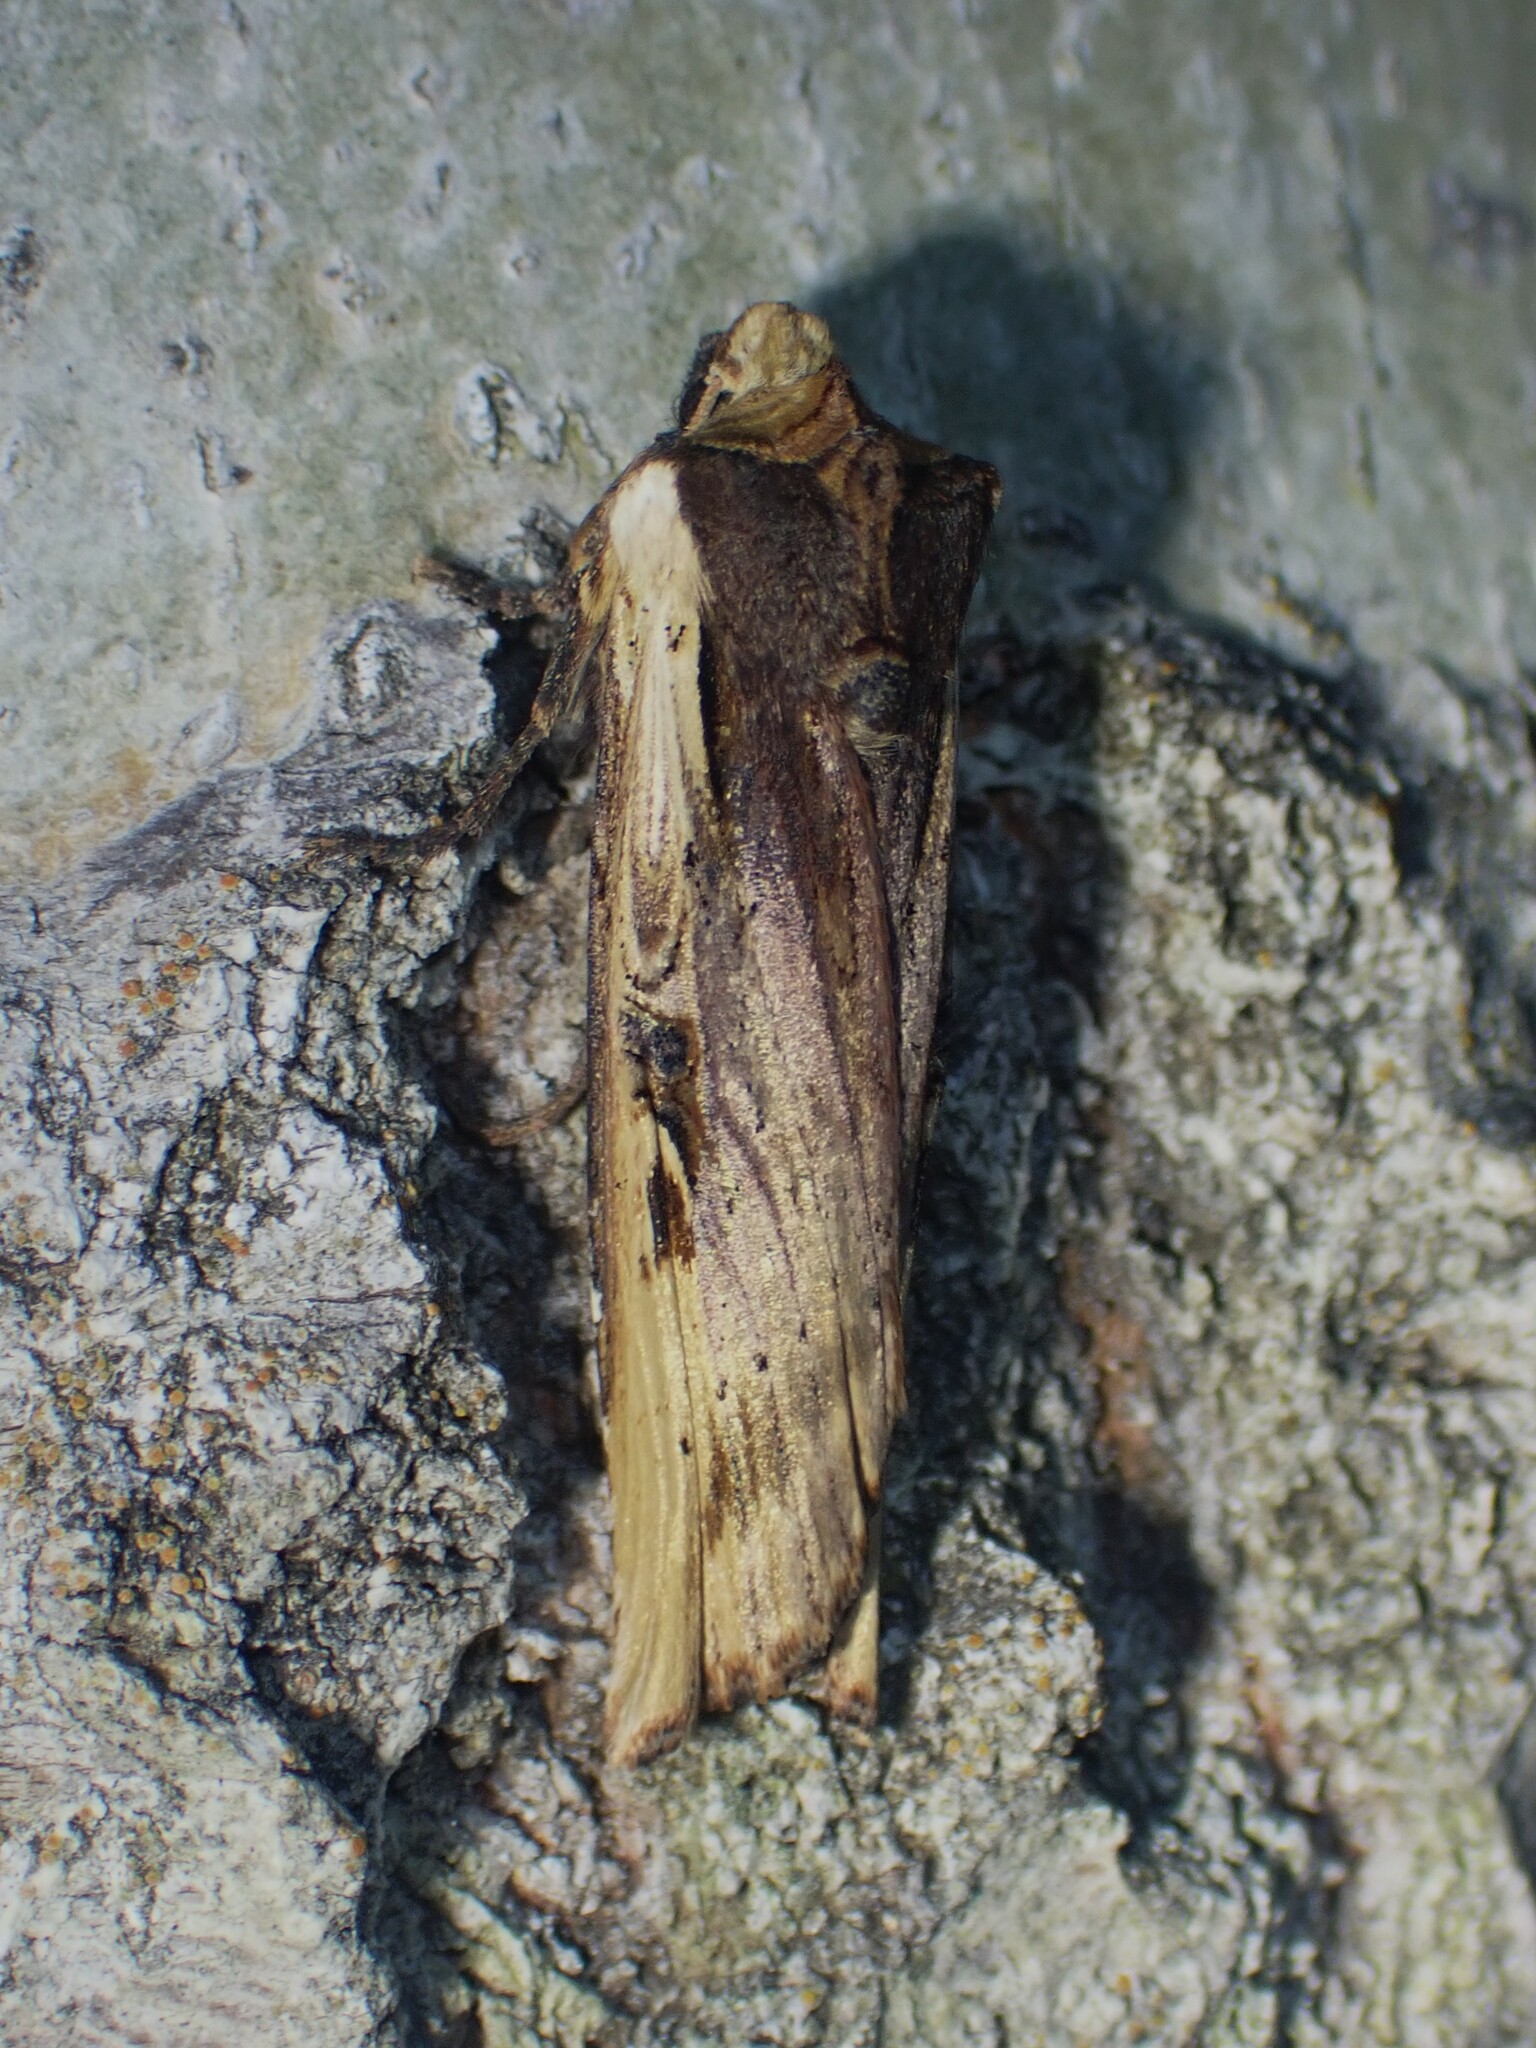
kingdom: Animalia
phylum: Arthropoda
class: Insecta
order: Lepidoptera
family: Noctuidae
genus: Xylena
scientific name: Xylena curvimacula
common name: Dot-and-dash swordgrass moth
